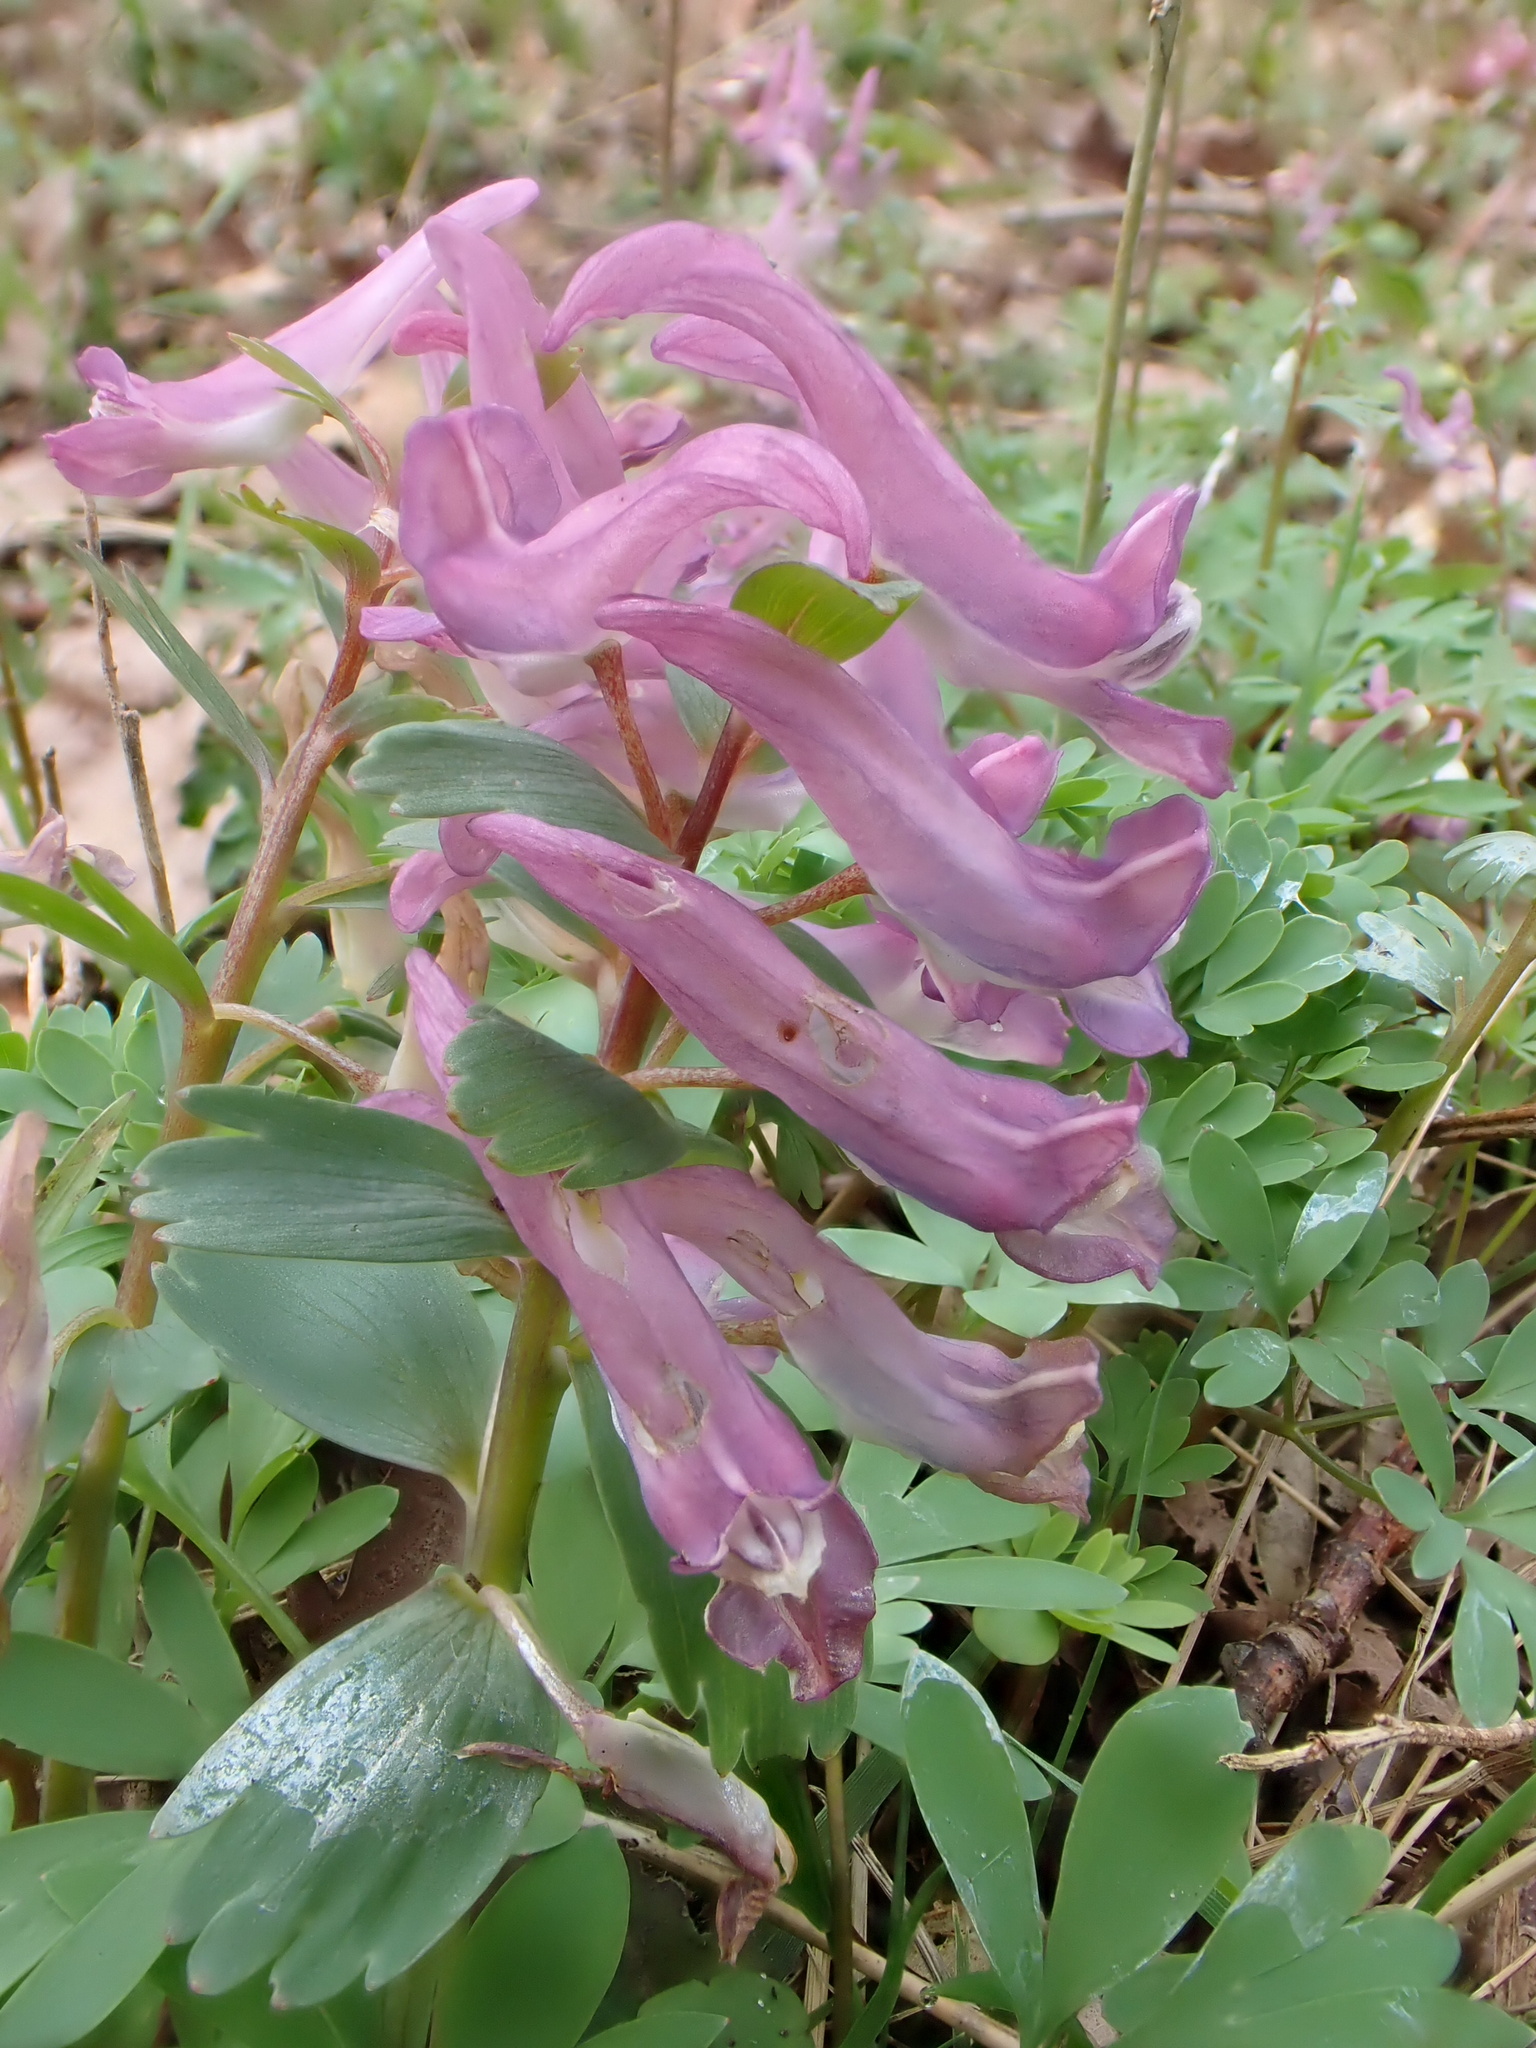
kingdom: Plantae
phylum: Tracheophyta
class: Magnoliopsida
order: Ranunculales
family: Papaveraceae
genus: Corydalis
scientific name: Corydalis solida
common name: Bird-in-a-bush
